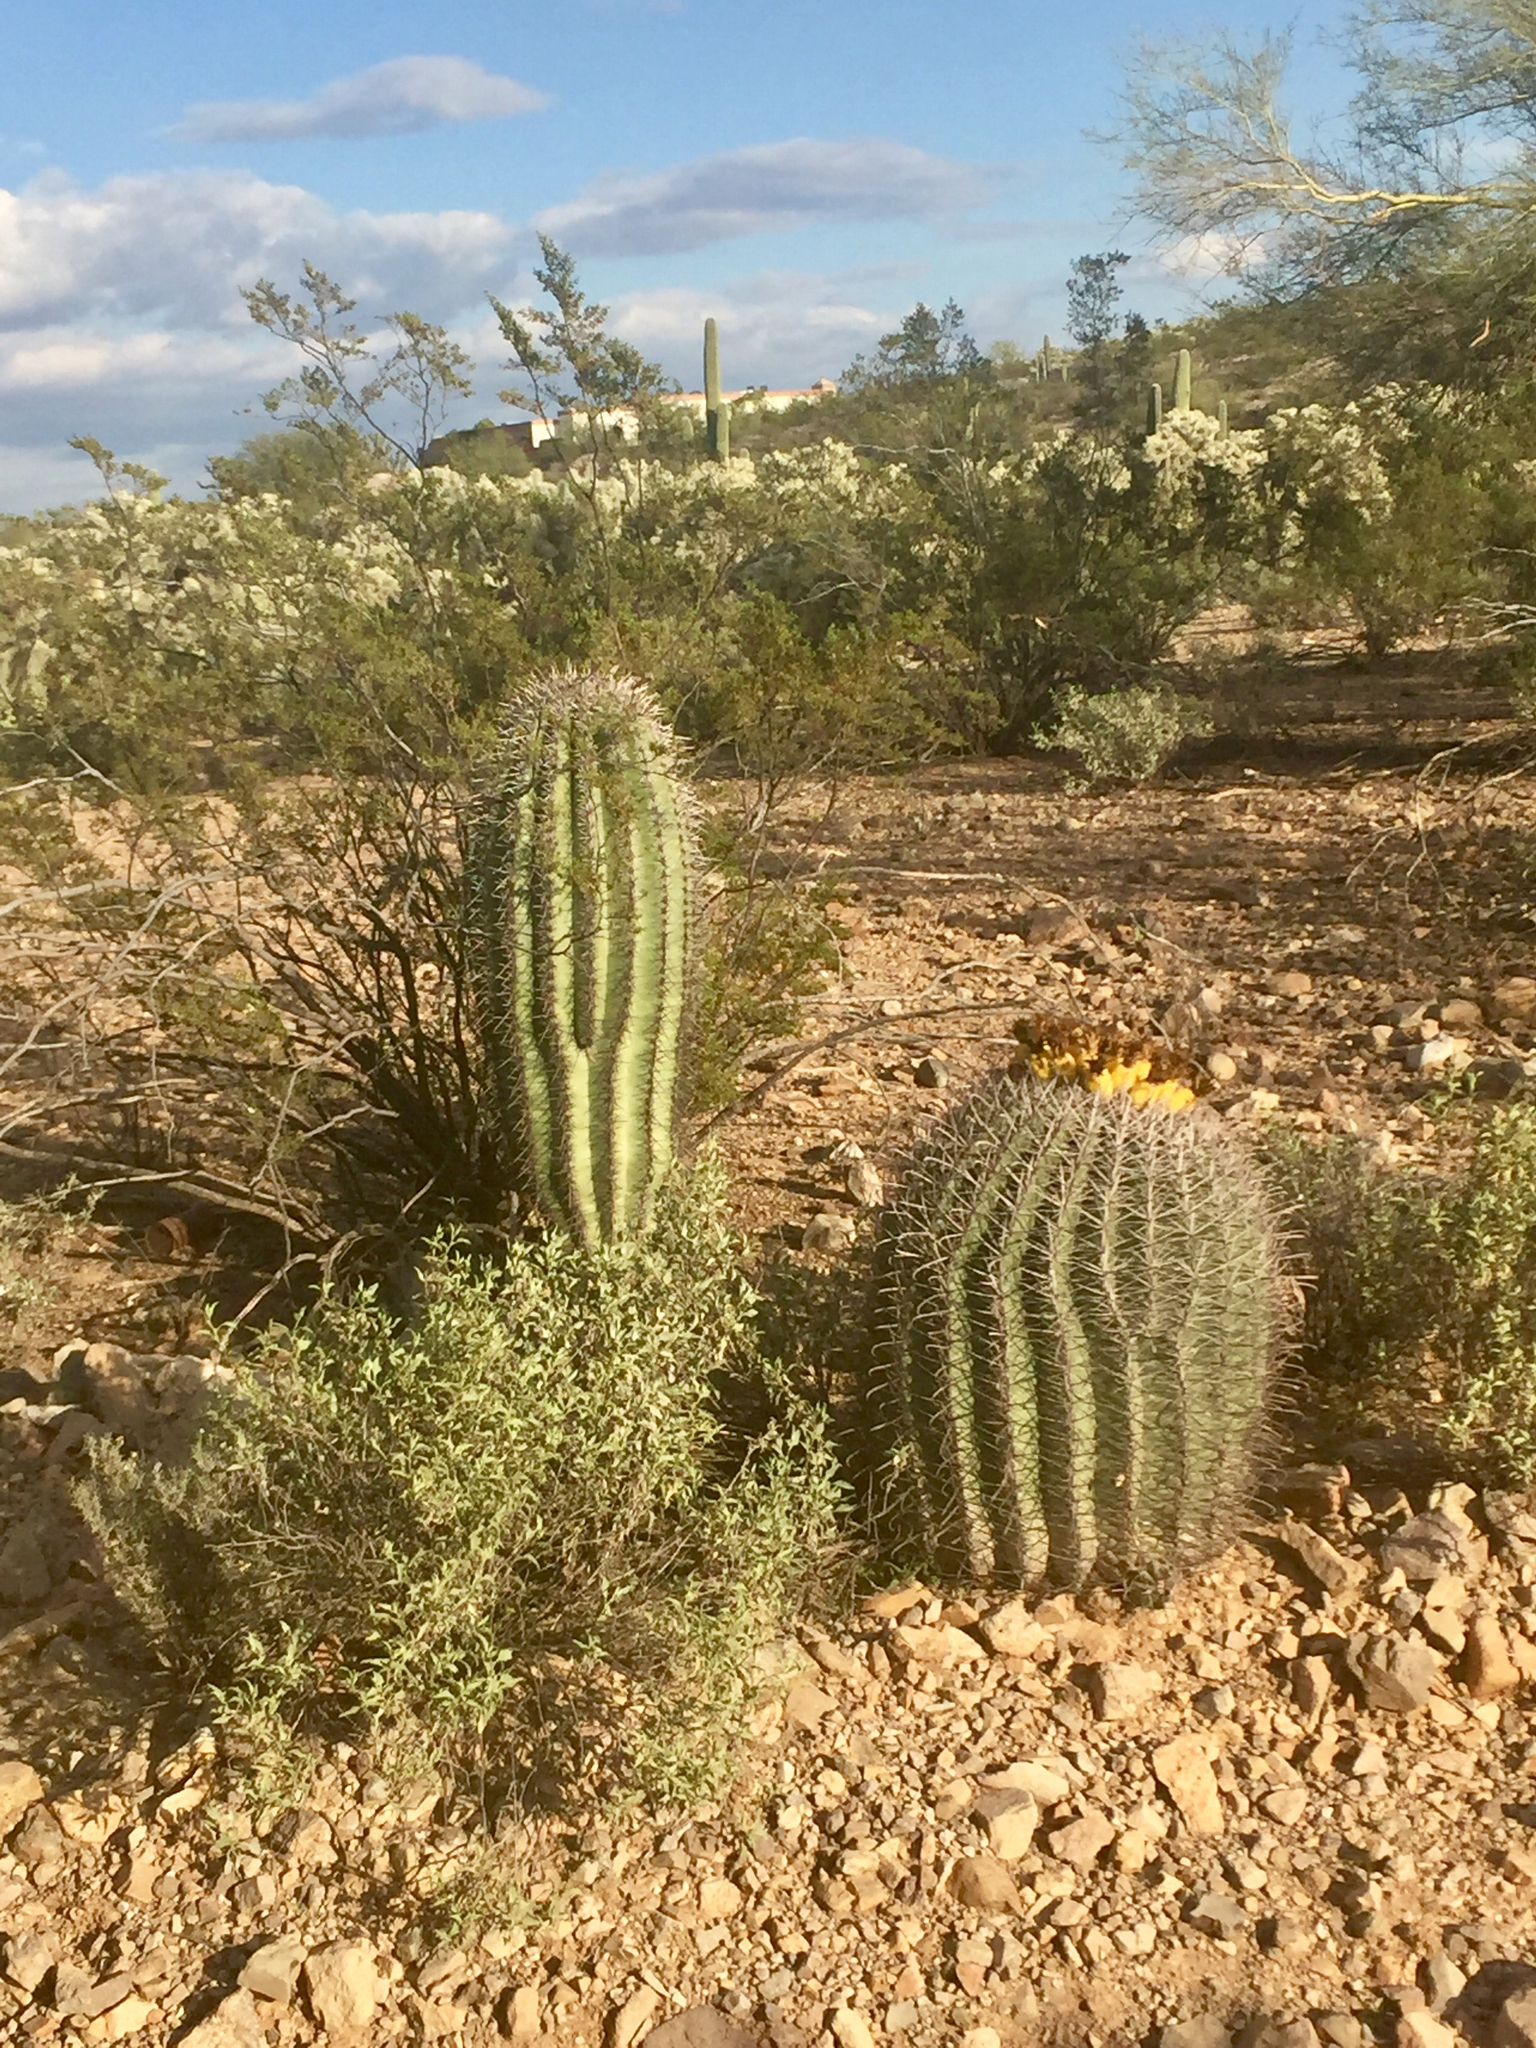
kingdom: Plantae
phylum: Tracheophyta
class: Magnoliopsida
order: Caryophyllales
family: Cactaceae
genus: Carnegiea
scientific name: Carnegiea gigantea
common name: Saguaro
